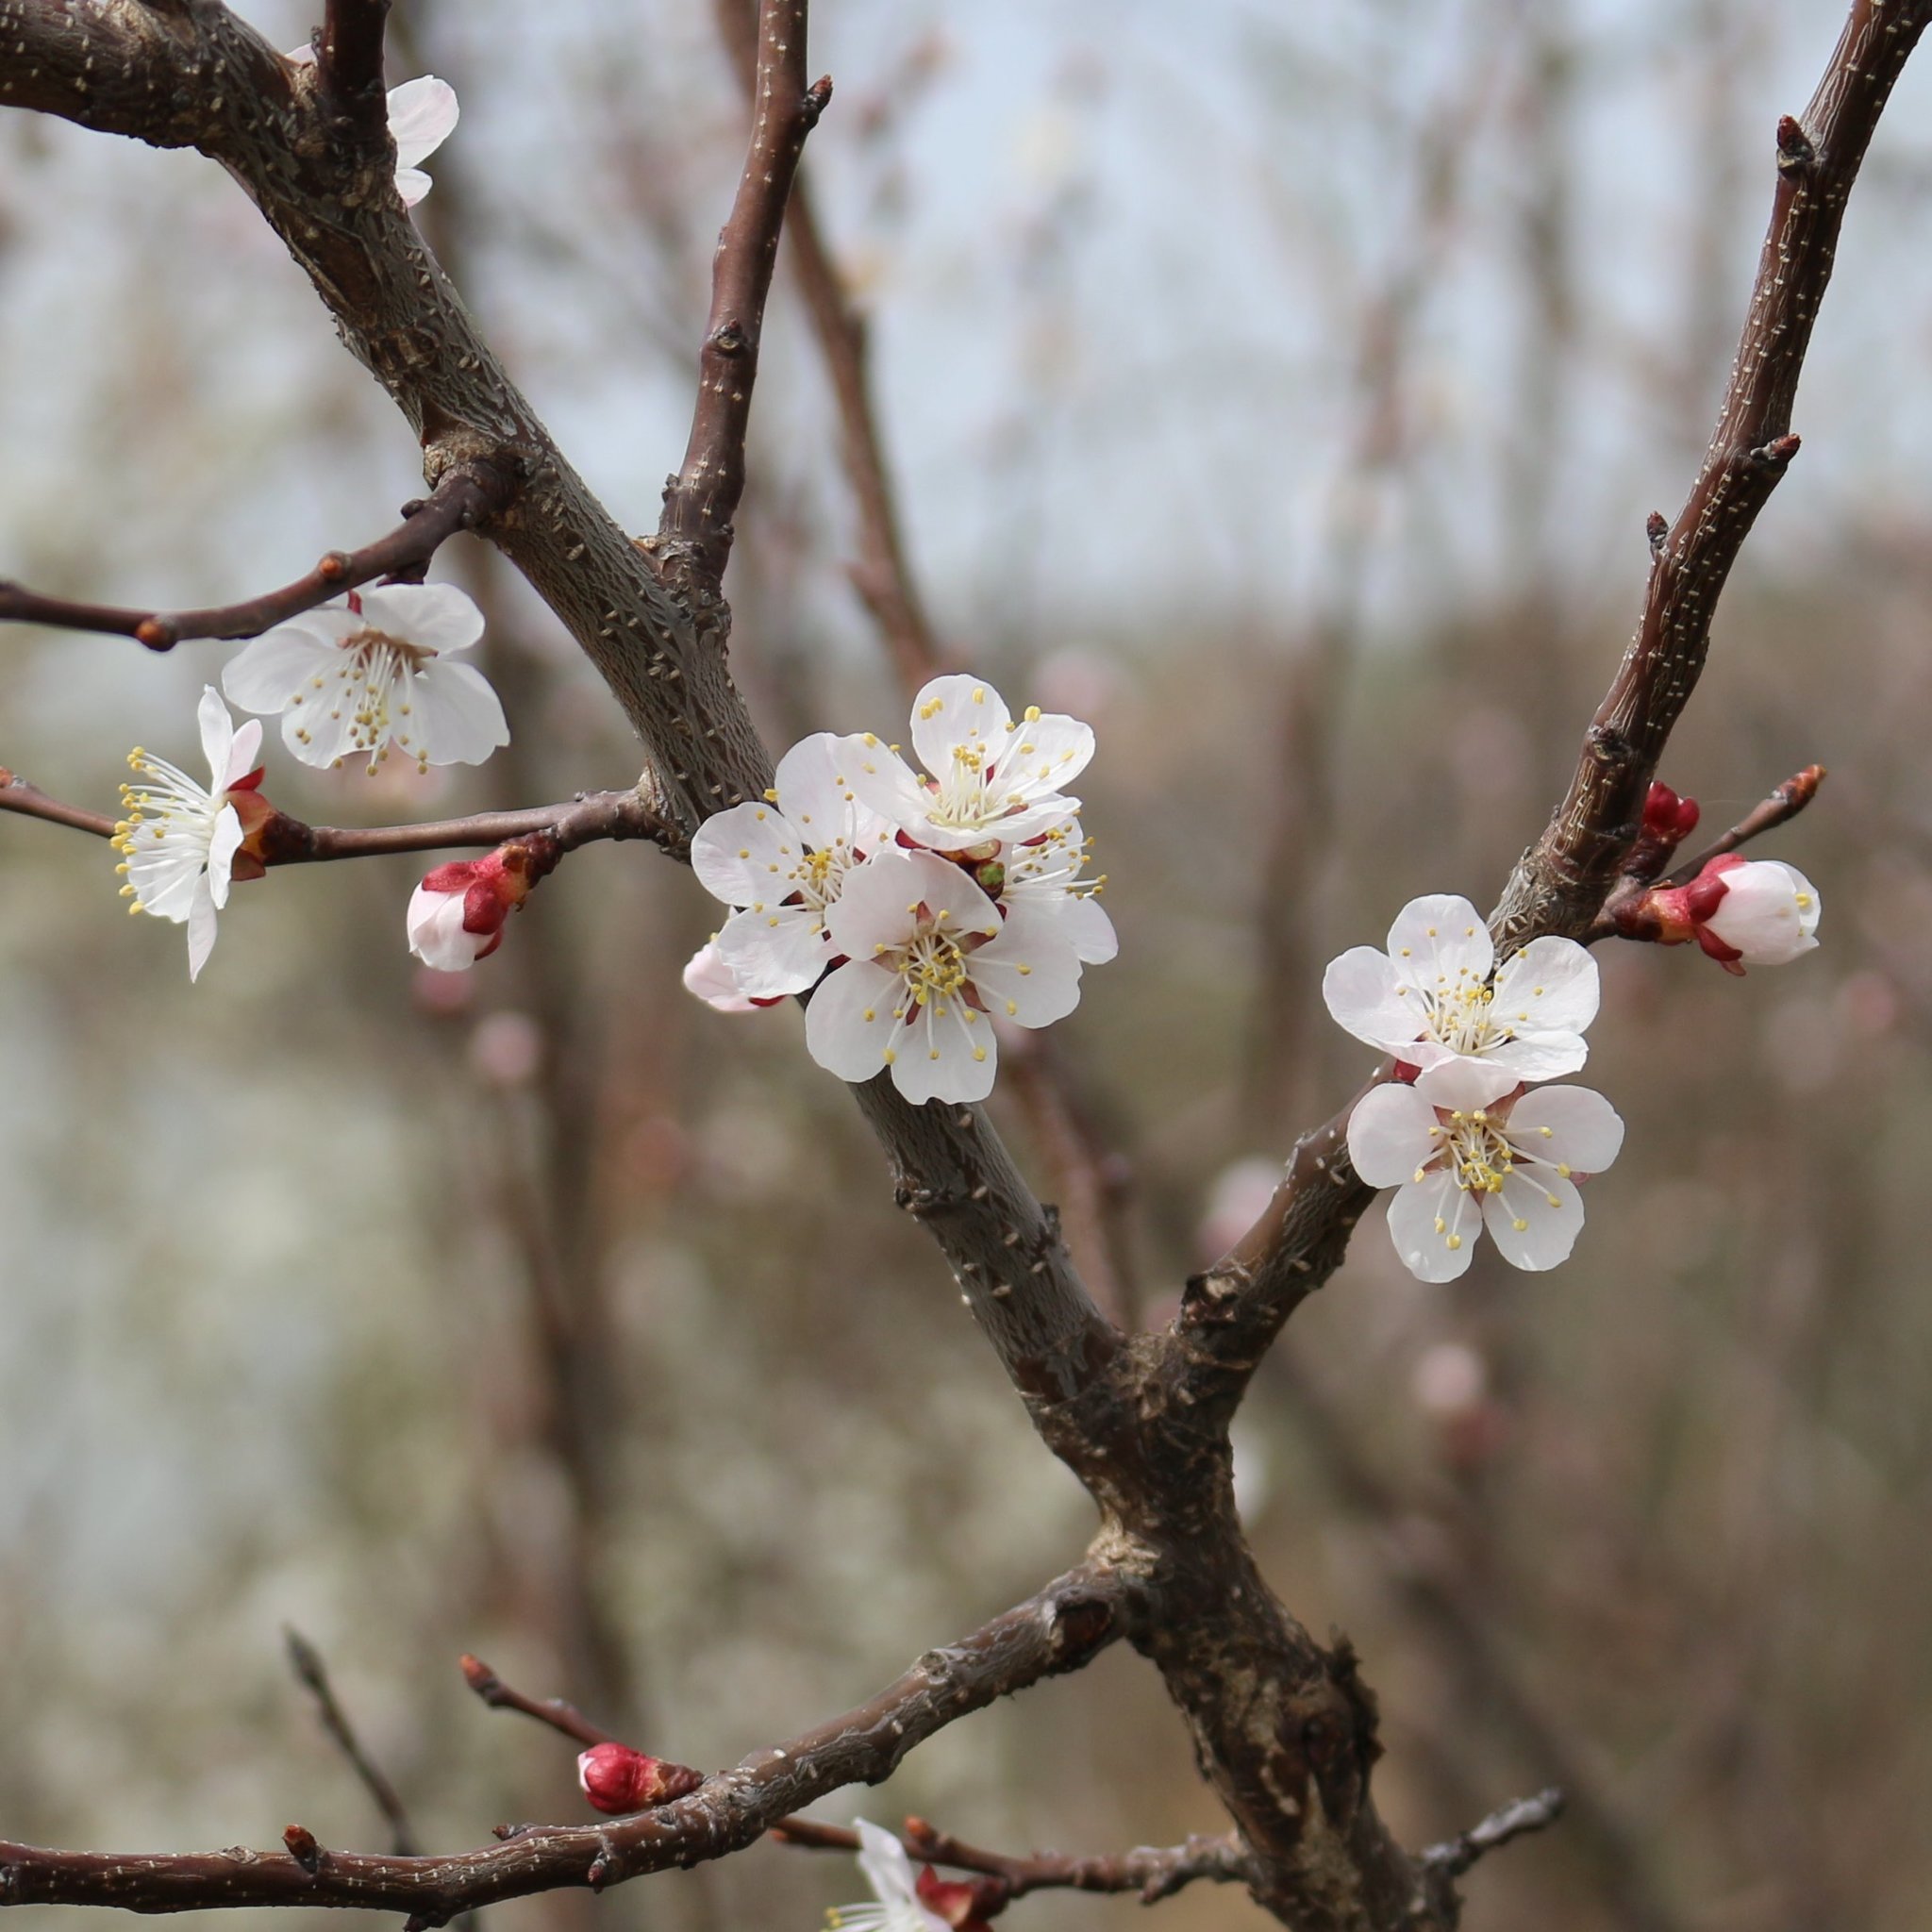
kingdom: Plantae
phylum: Tracheophyta
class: Magnoliopsida
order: Rosales
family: Rosaceae
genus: Prunus
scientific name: Prunus armeniaca
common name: Apricot
